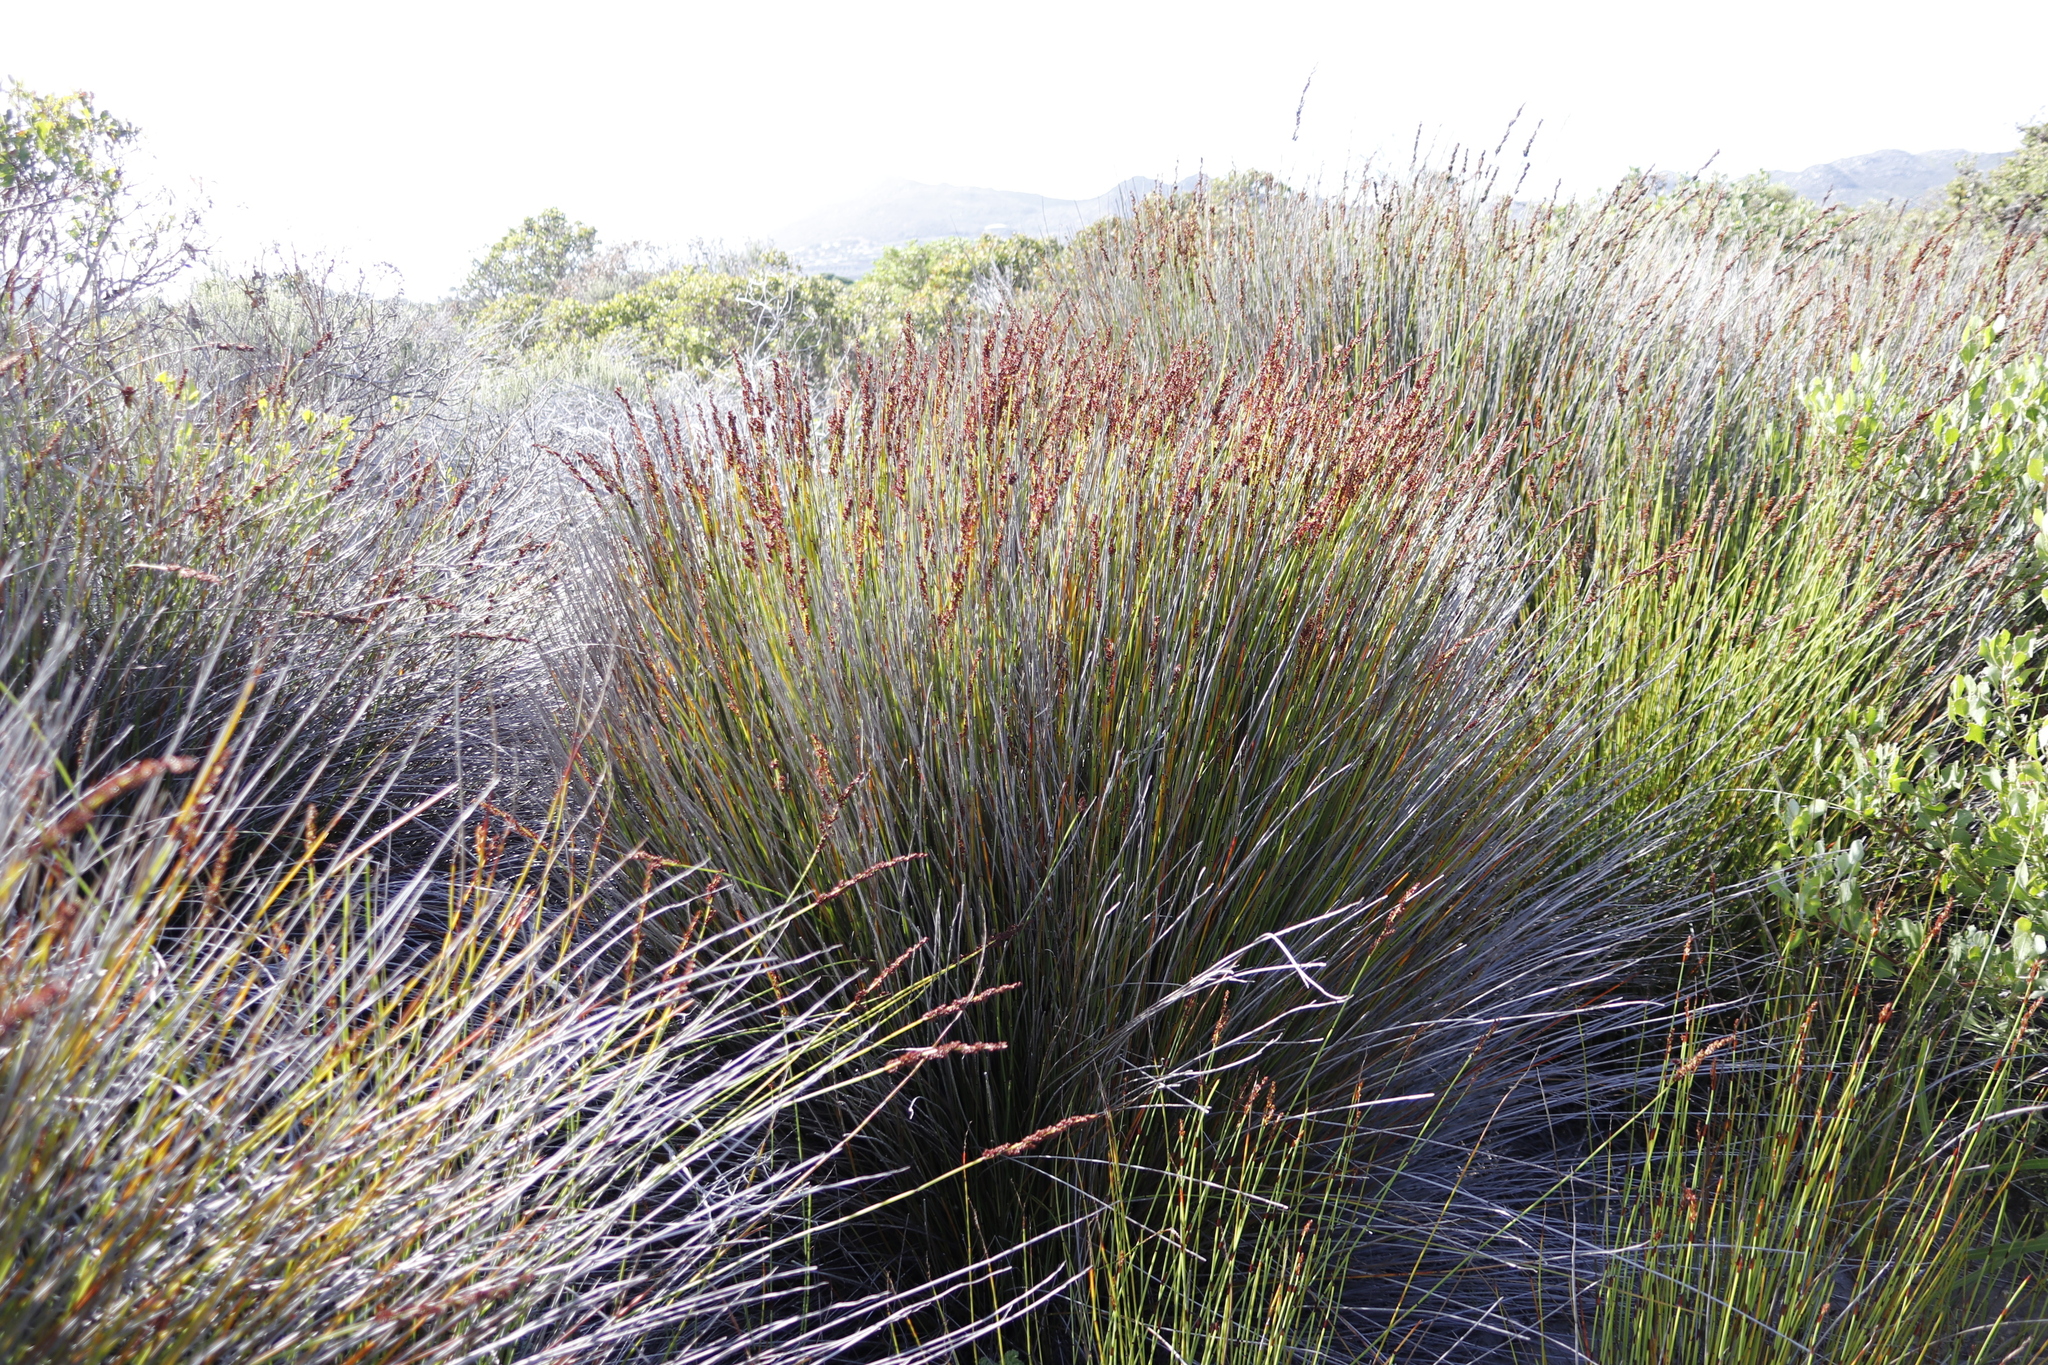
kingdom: Plantae
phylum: Tracheophyta
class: Liliopsida
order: Poales
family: Restionaceae
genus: Elegia
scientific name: Elegia tectorum
